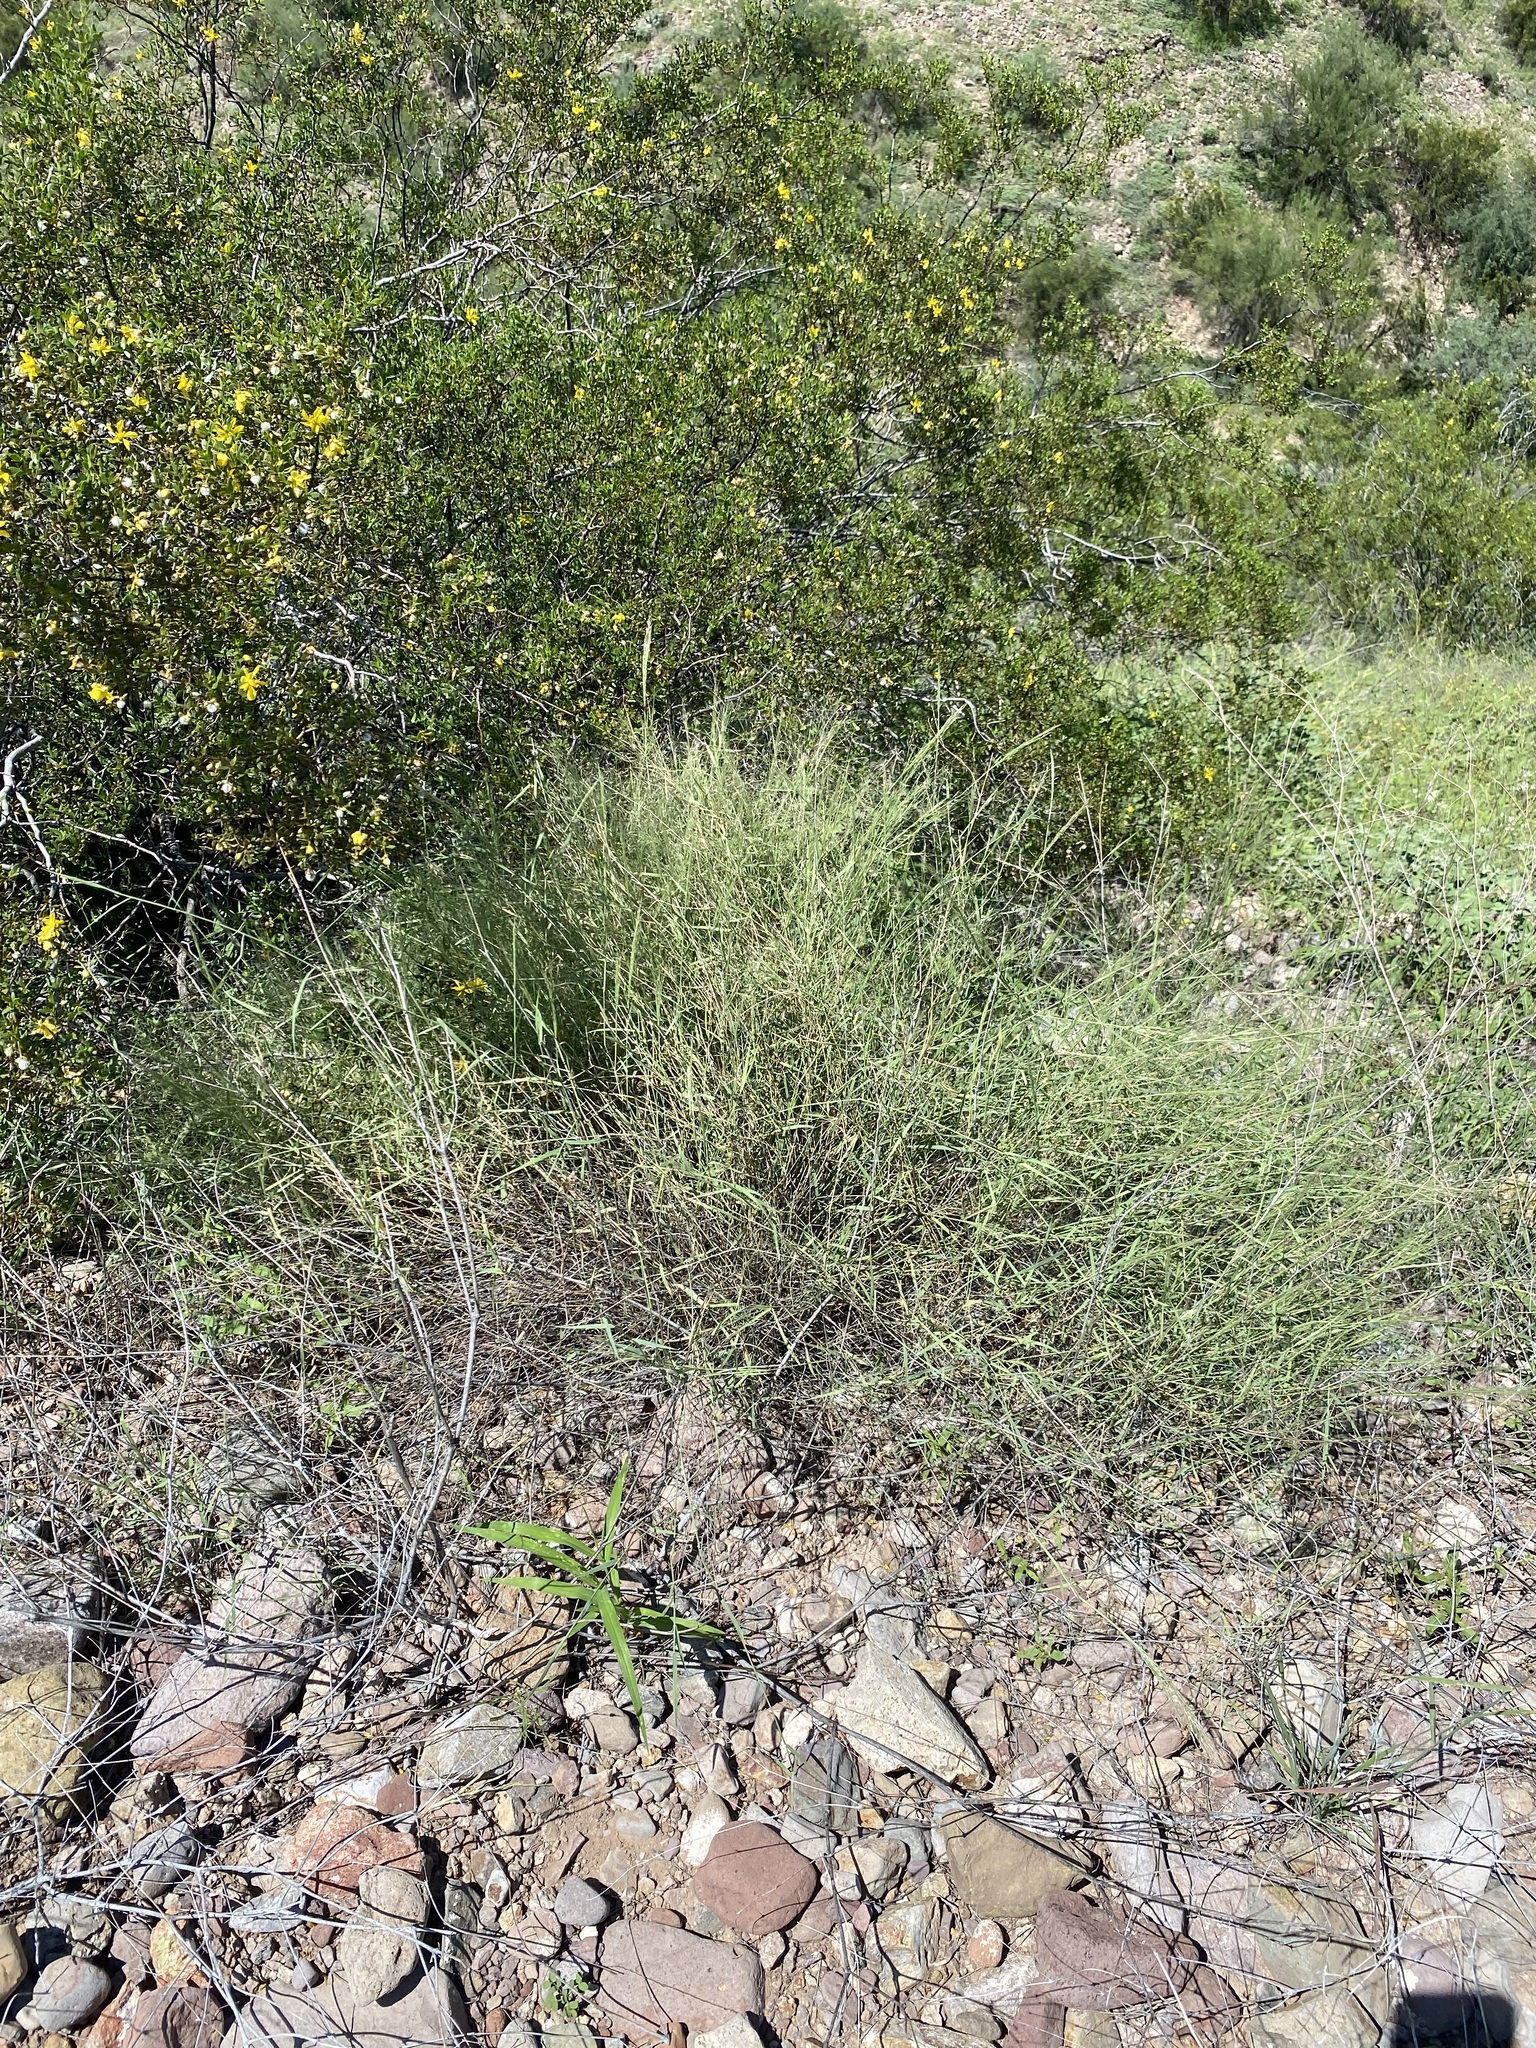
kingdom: Plantae
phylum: Tracheophyta
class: Liliopsida
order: Poales
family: Poaceae
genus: Muhlenbergia
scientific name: Muhlenbergia porteri
